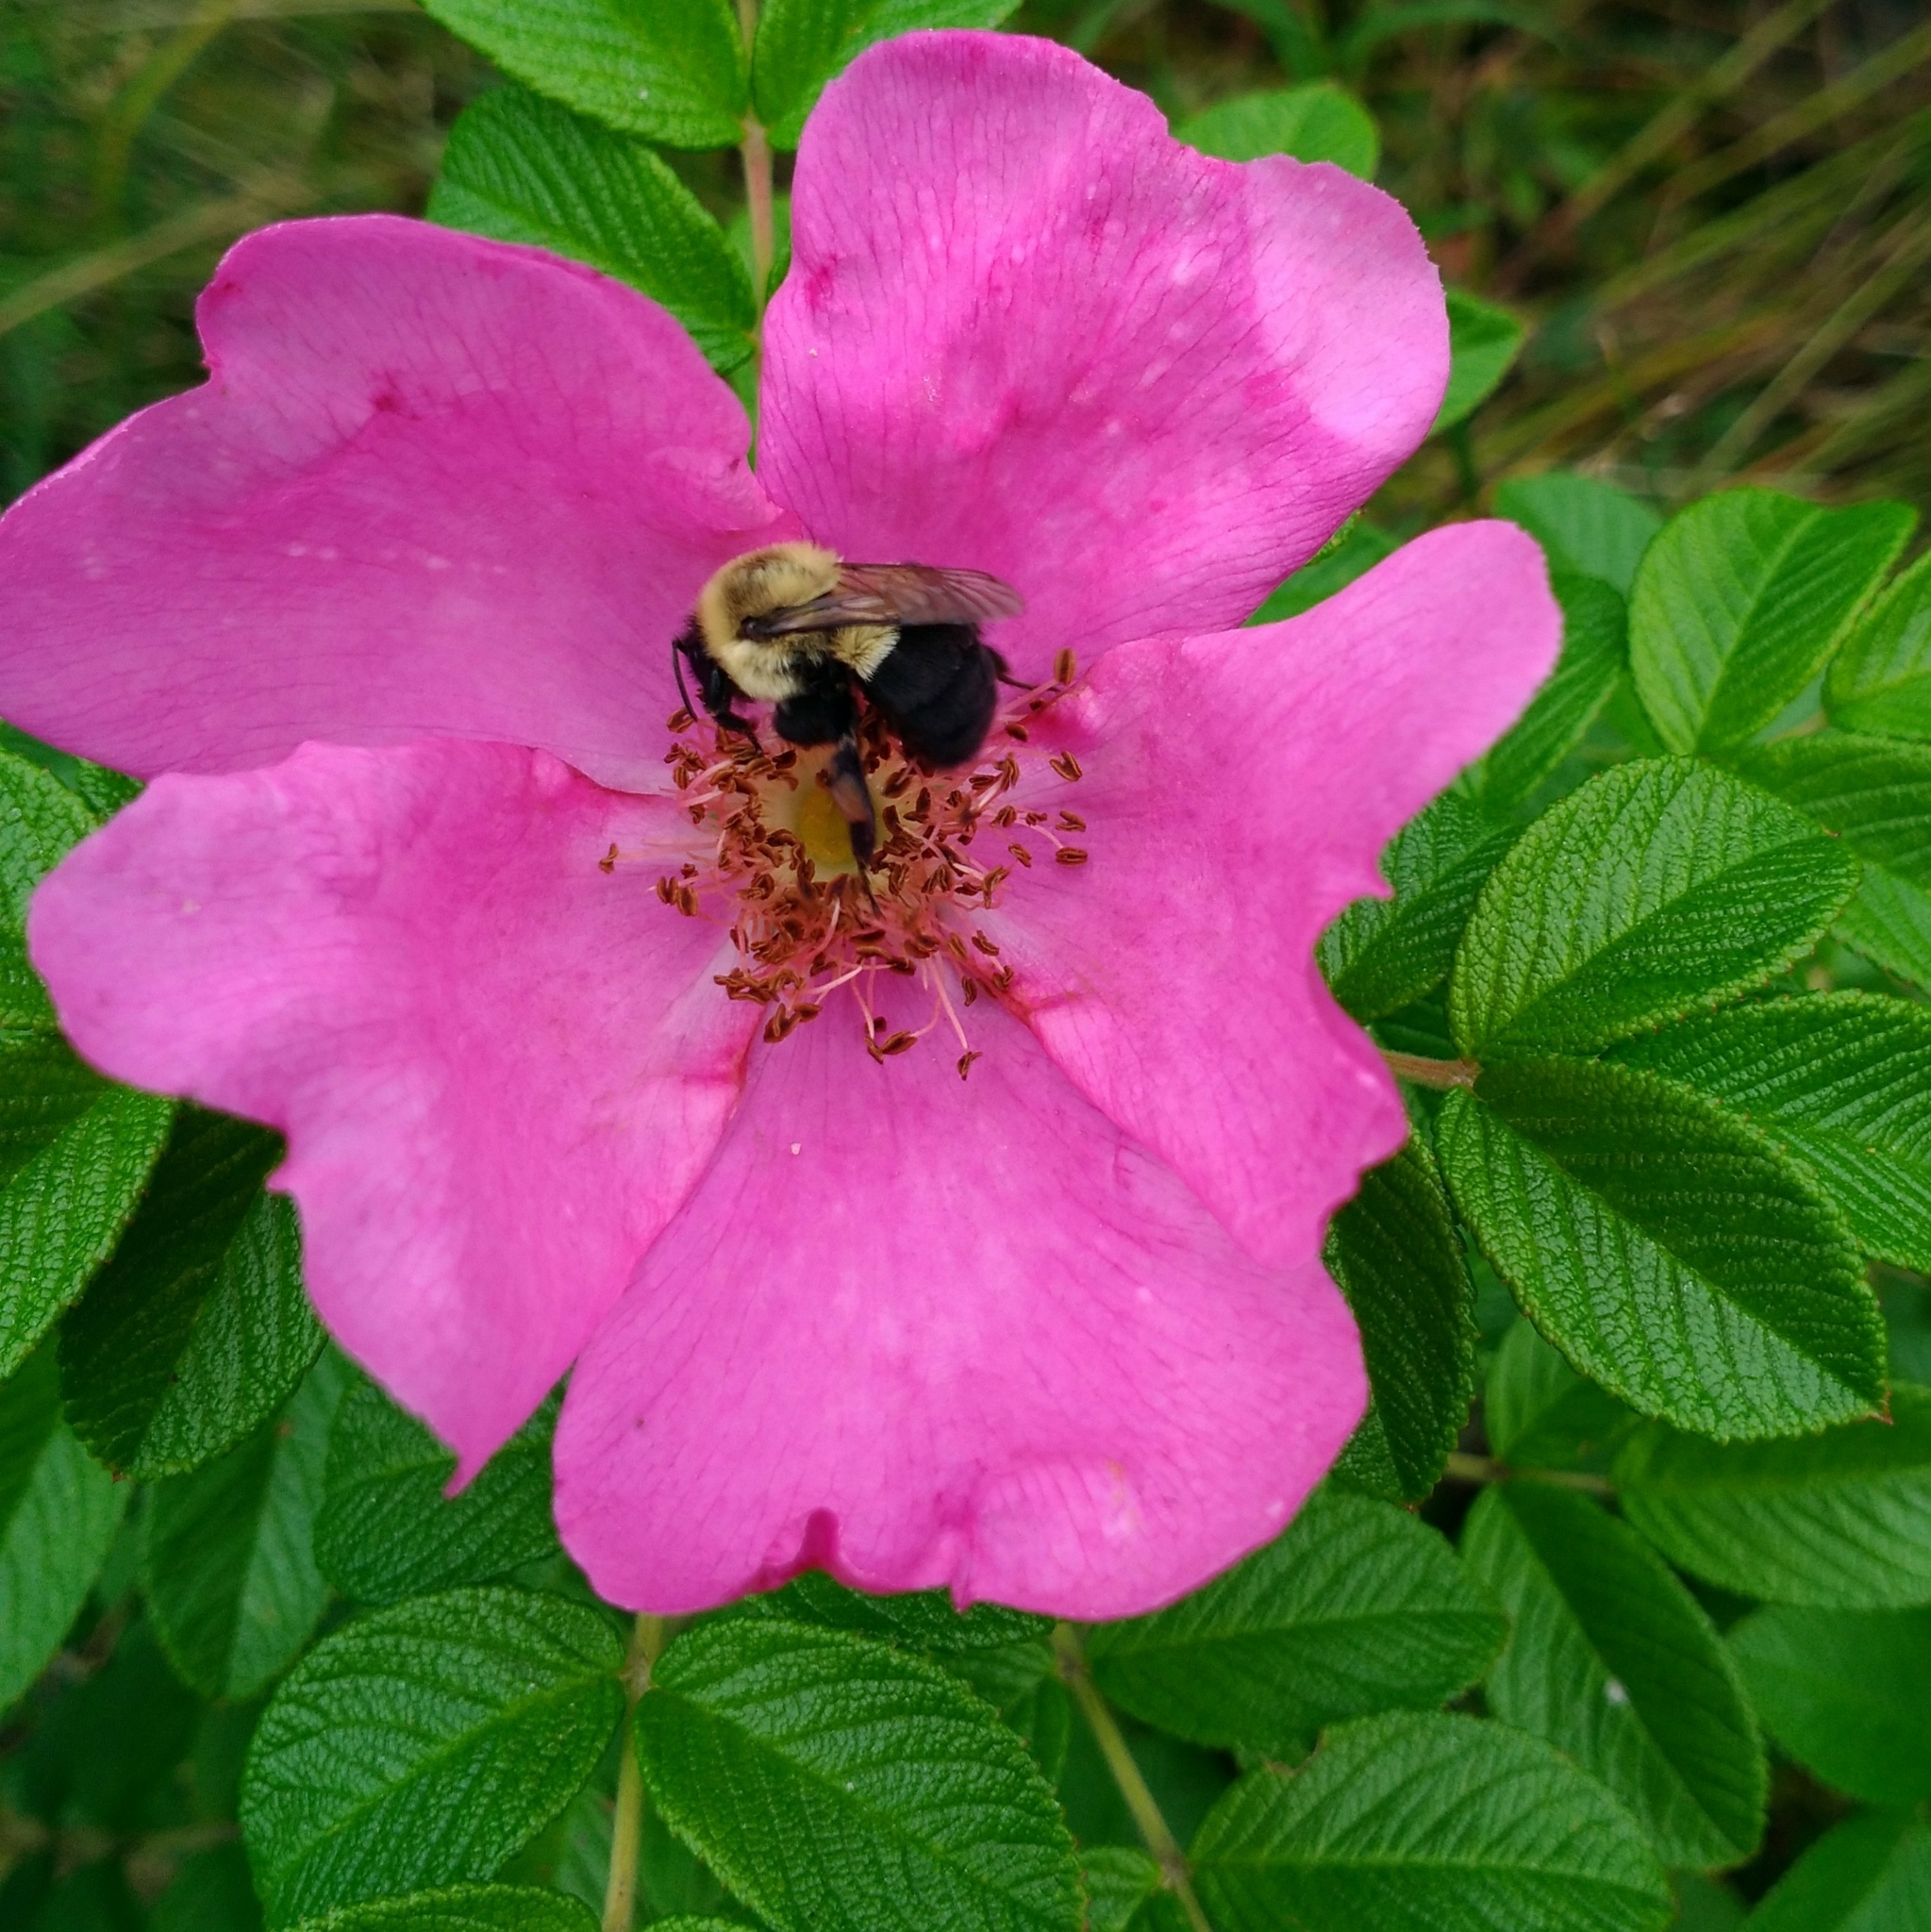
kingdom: Animalia
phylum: Arthropoda
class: Insecta
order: Hymenoptera
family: Apidae
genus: Bombus
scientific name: Bombus impatiens
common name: Common eastern bumble bee
